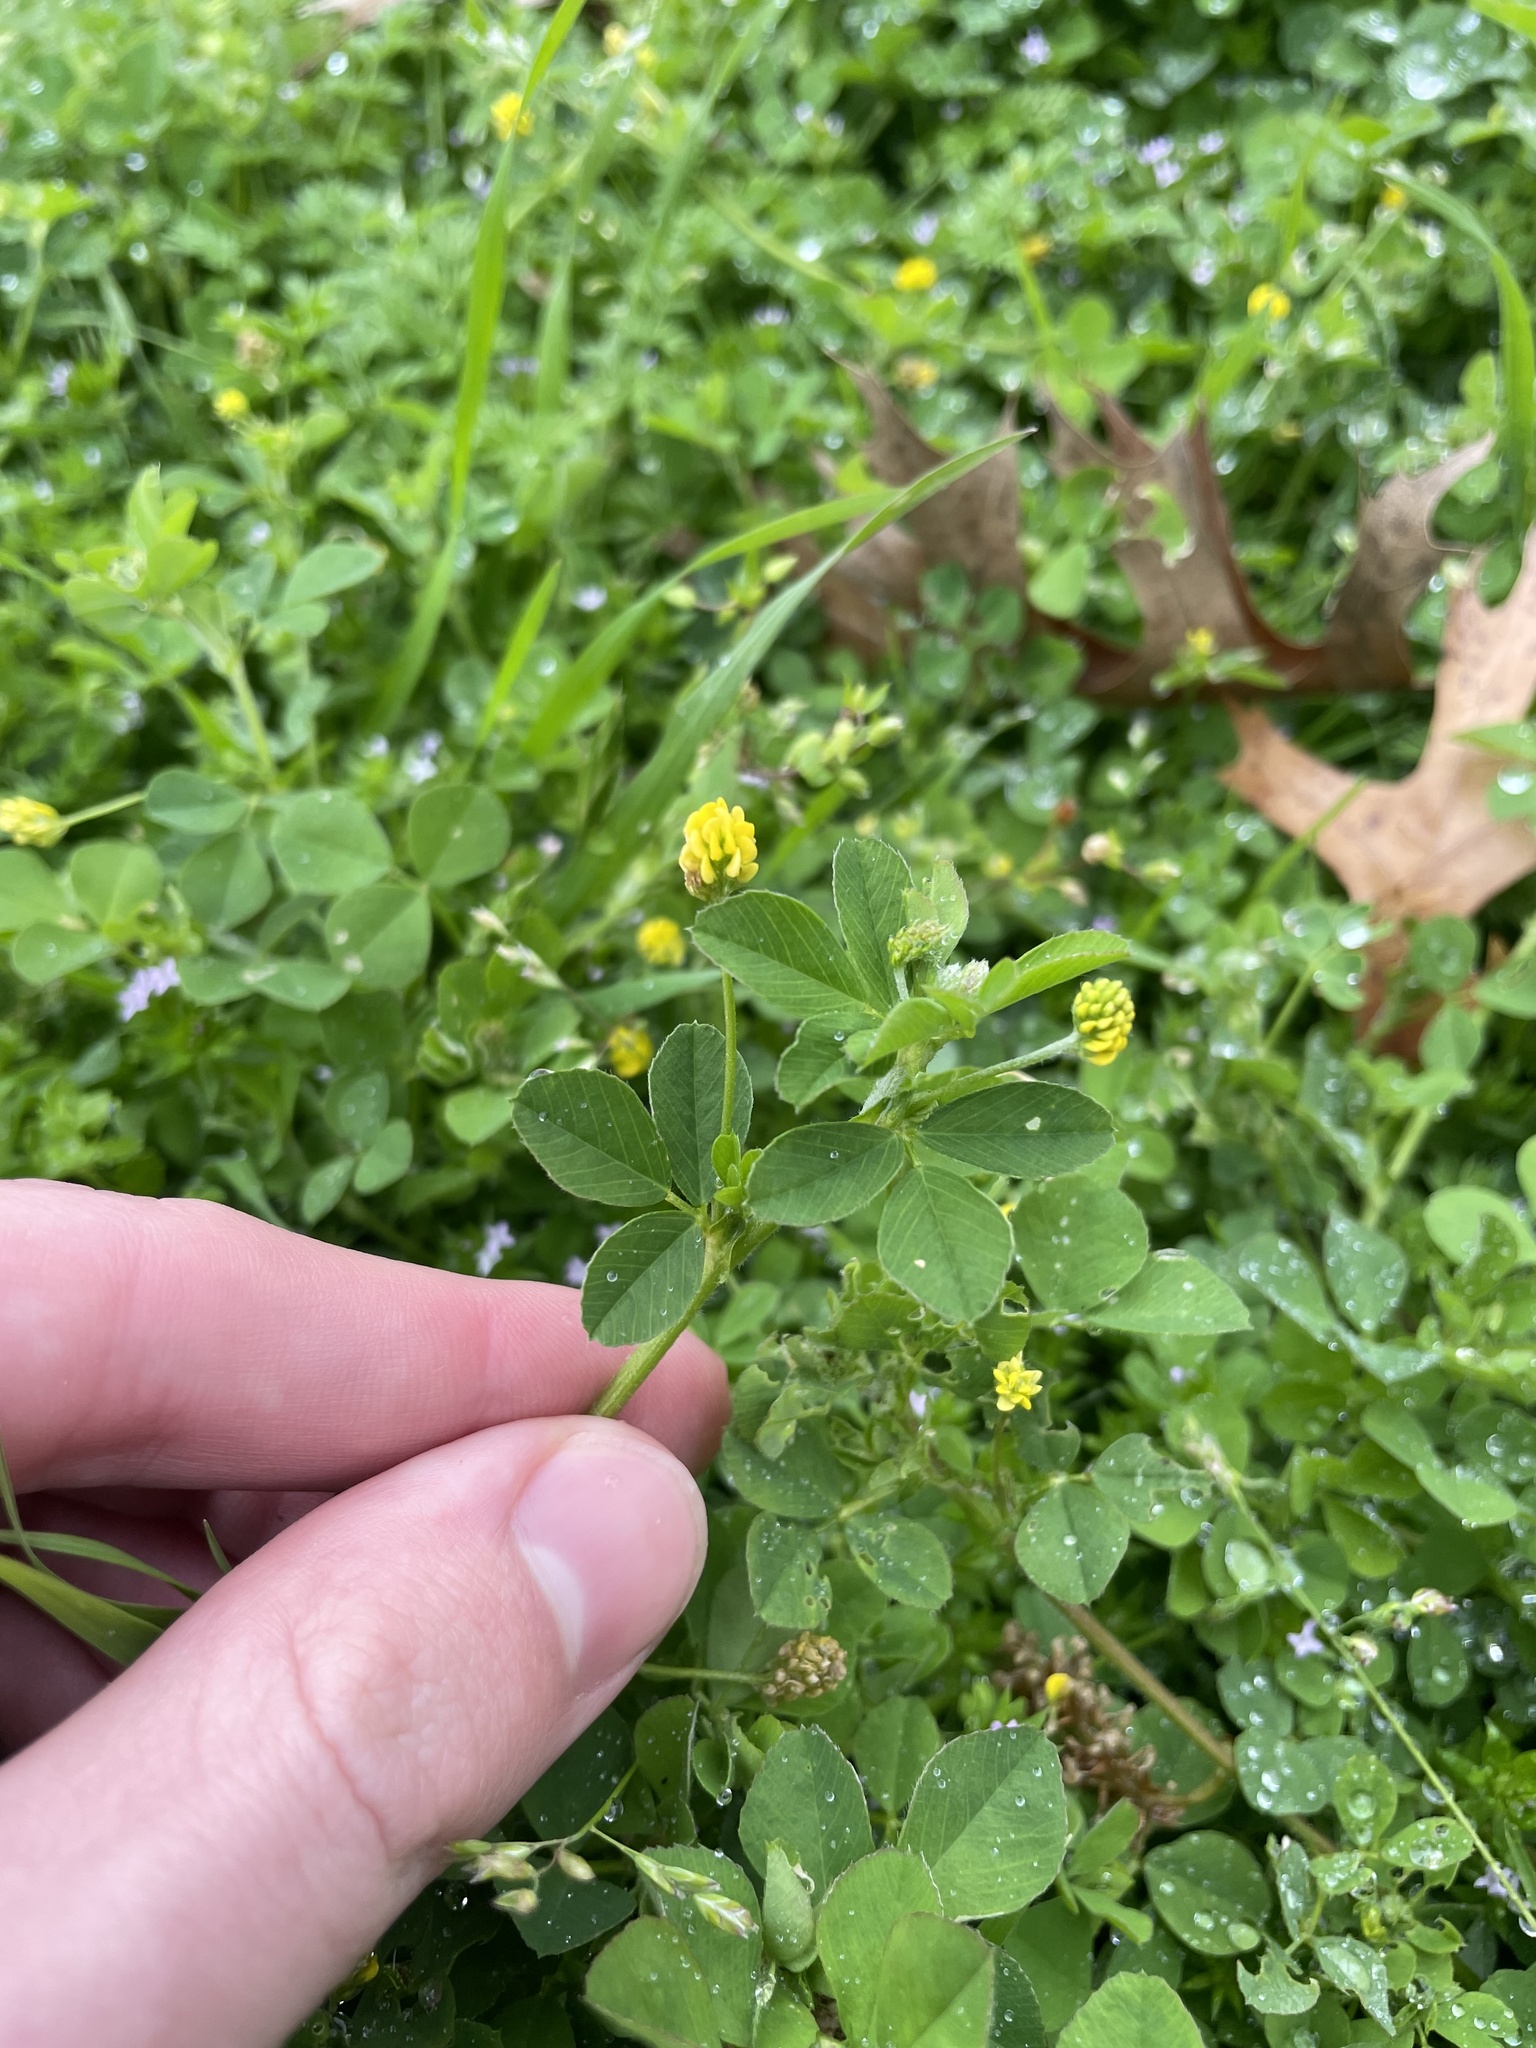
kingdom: Plantae
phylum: Tracheophyta
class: Magnoliopsida
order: Fabales
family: Fabaceae
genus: Medicago
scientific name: Medicago lupulina
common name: Black medick
